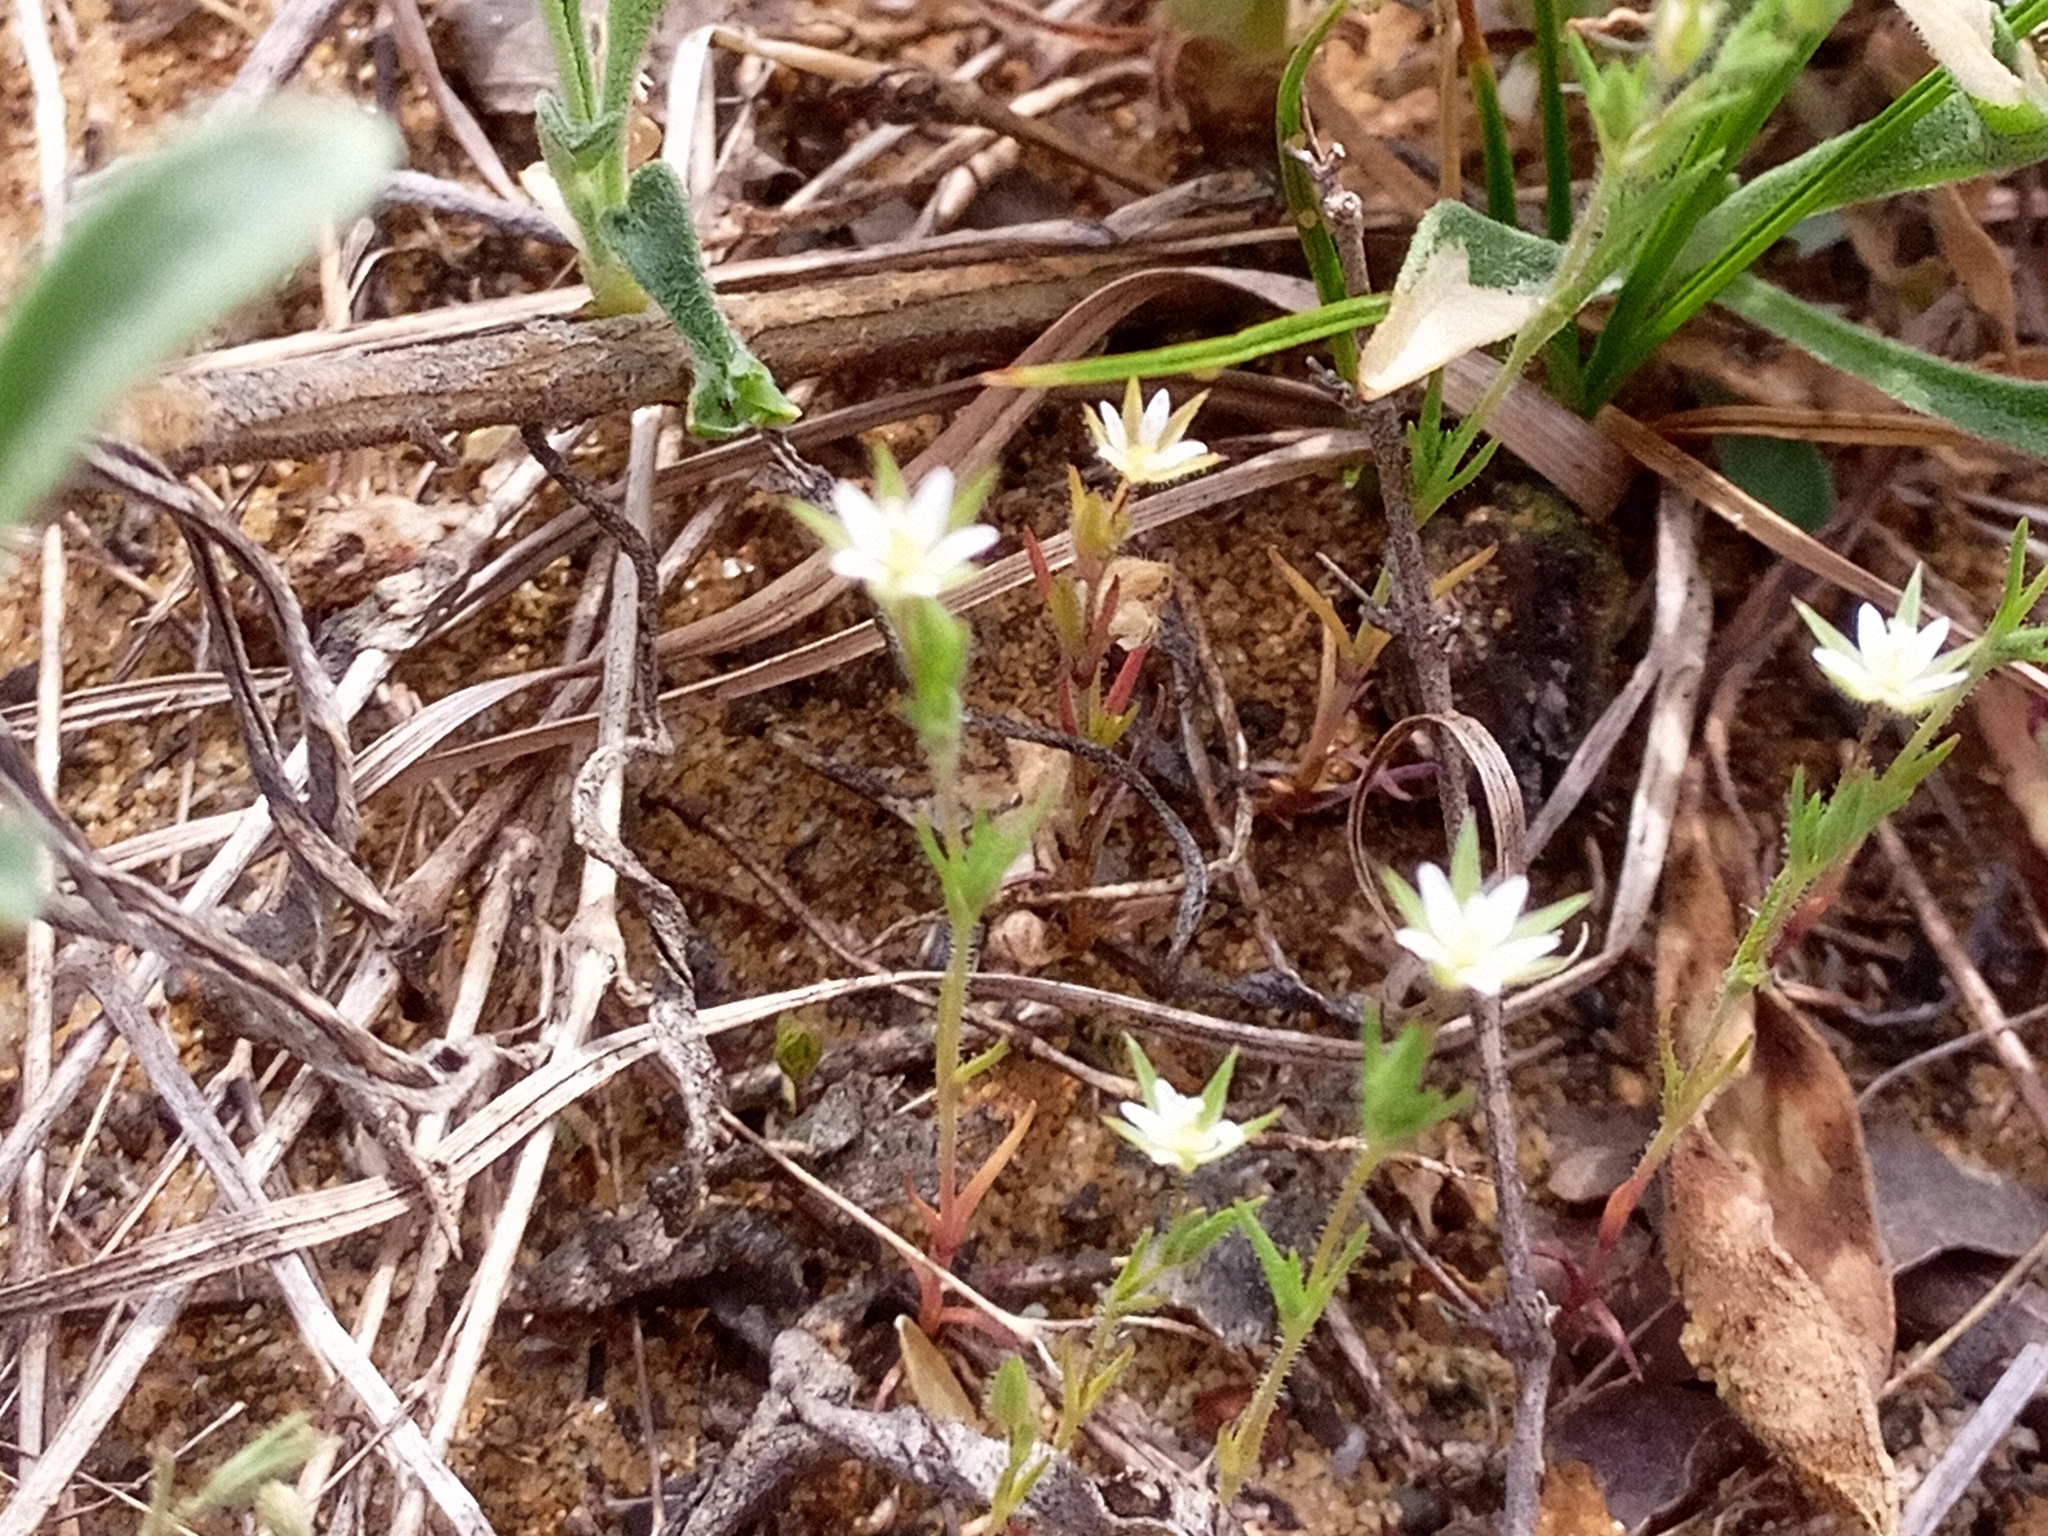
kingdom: Plantae
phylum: Tracheophyta
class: Magnoliopsida
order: Caryophyllales
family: Caryophyllaceae
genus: Sabulina
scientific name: Sabulina viscosa
